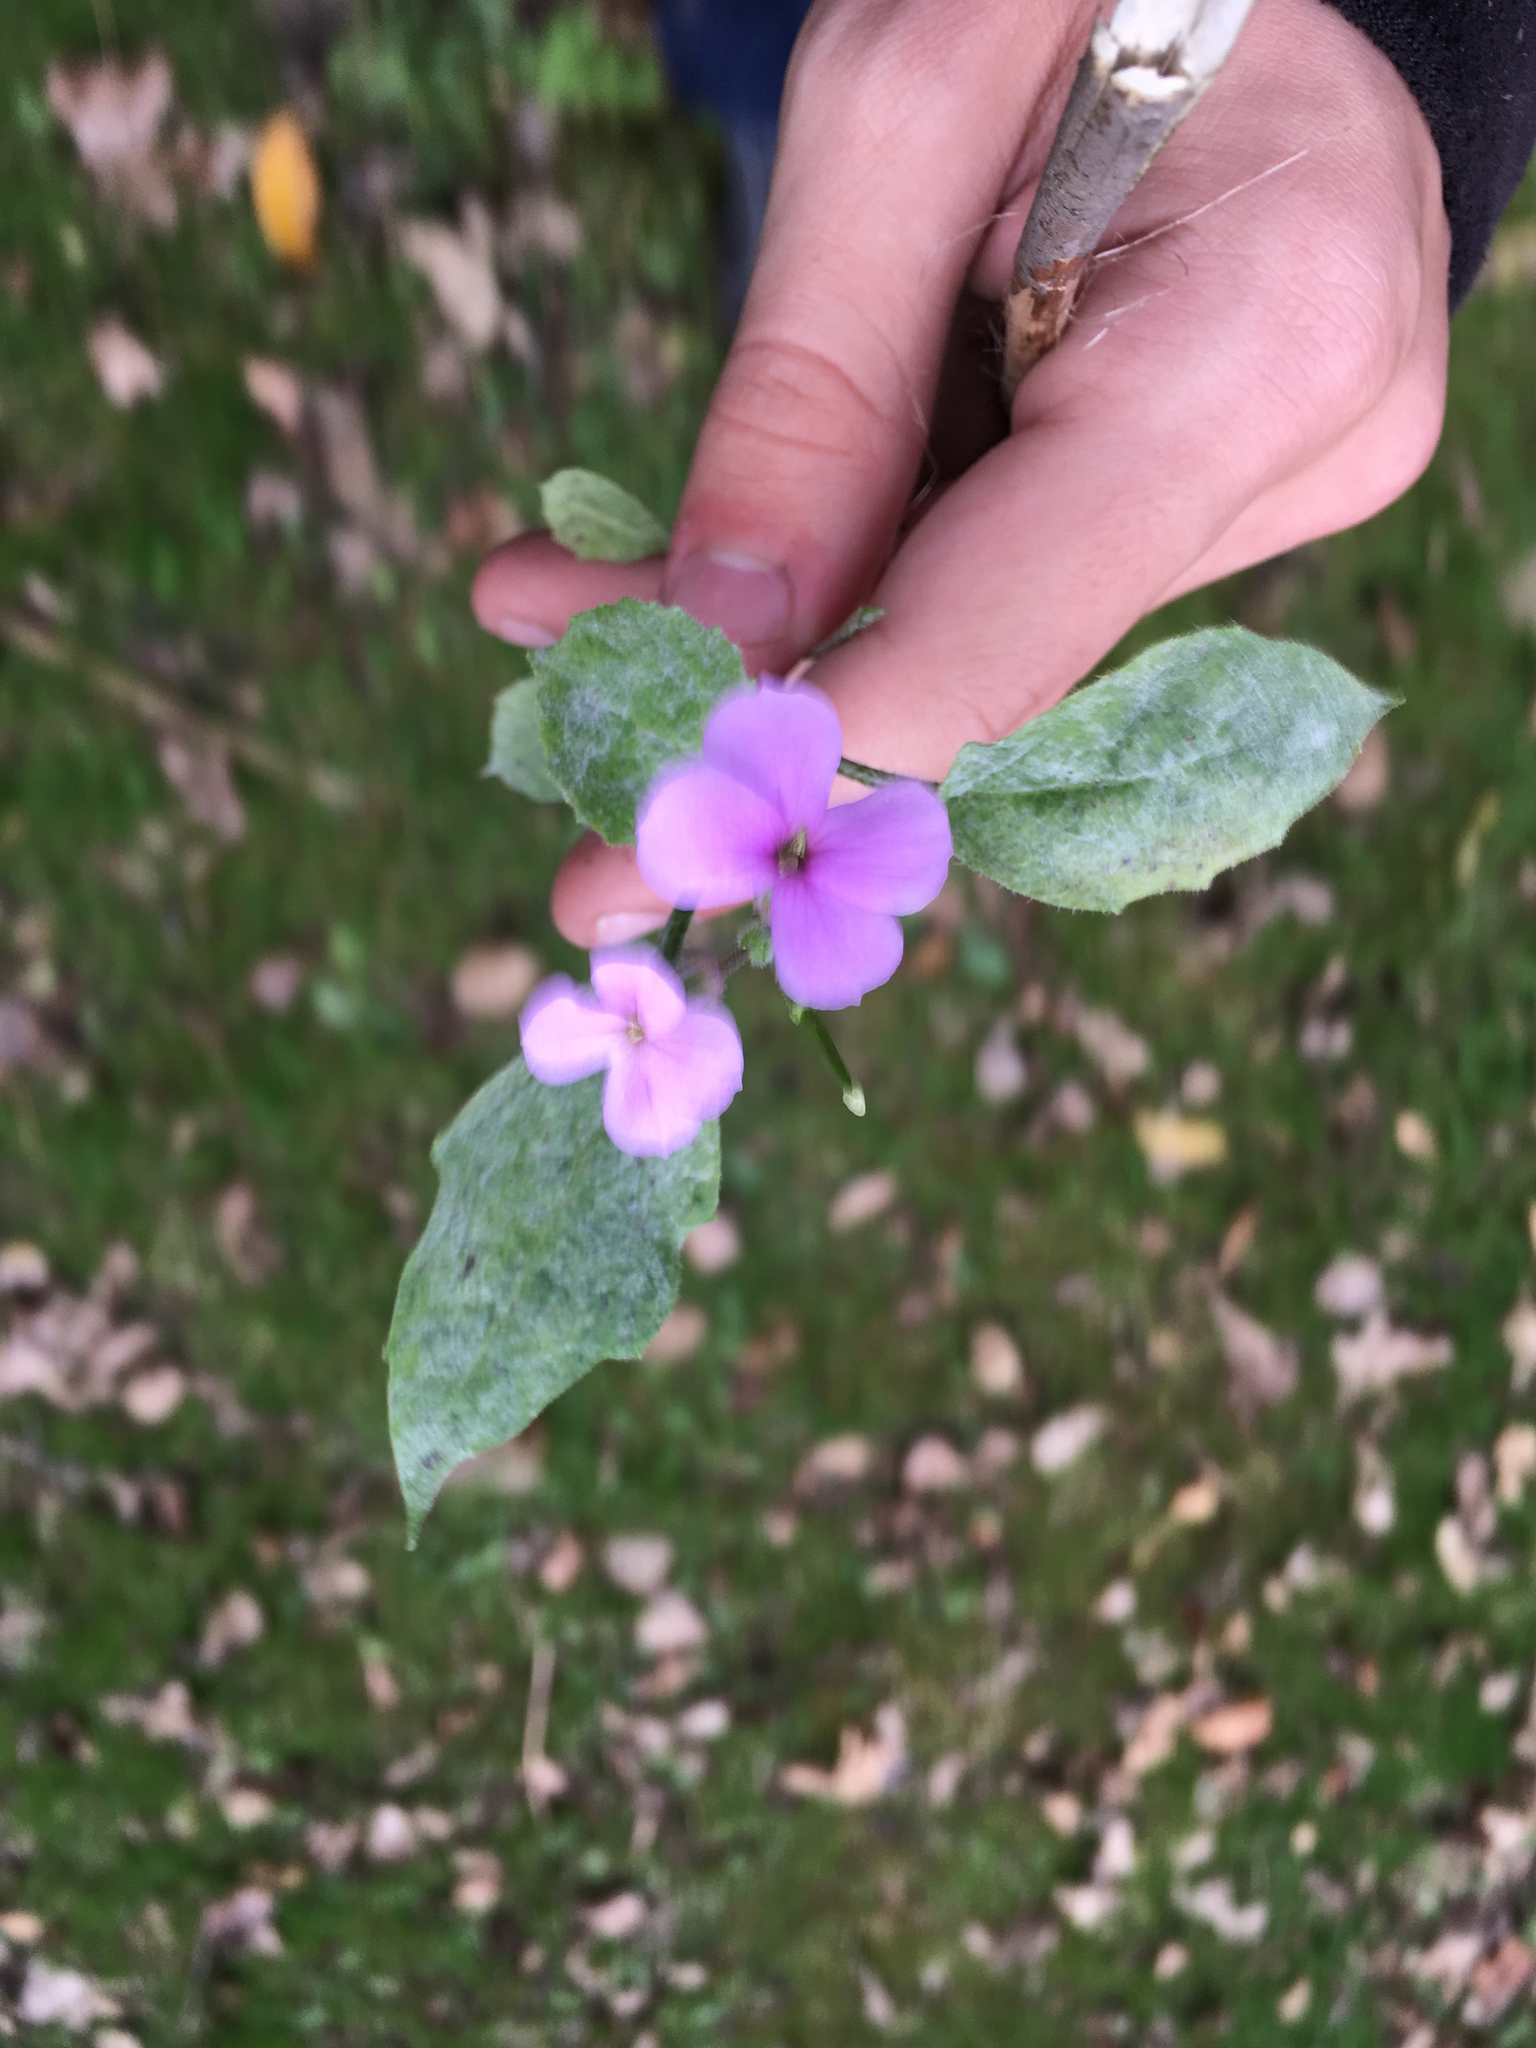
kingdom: Plantae
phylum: Tracheophyta
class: Magnoliopsida
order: Brassicales
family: Brassicaceae
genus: Hesperis
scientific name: Hesperis matronalis
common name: Dame's-violet
